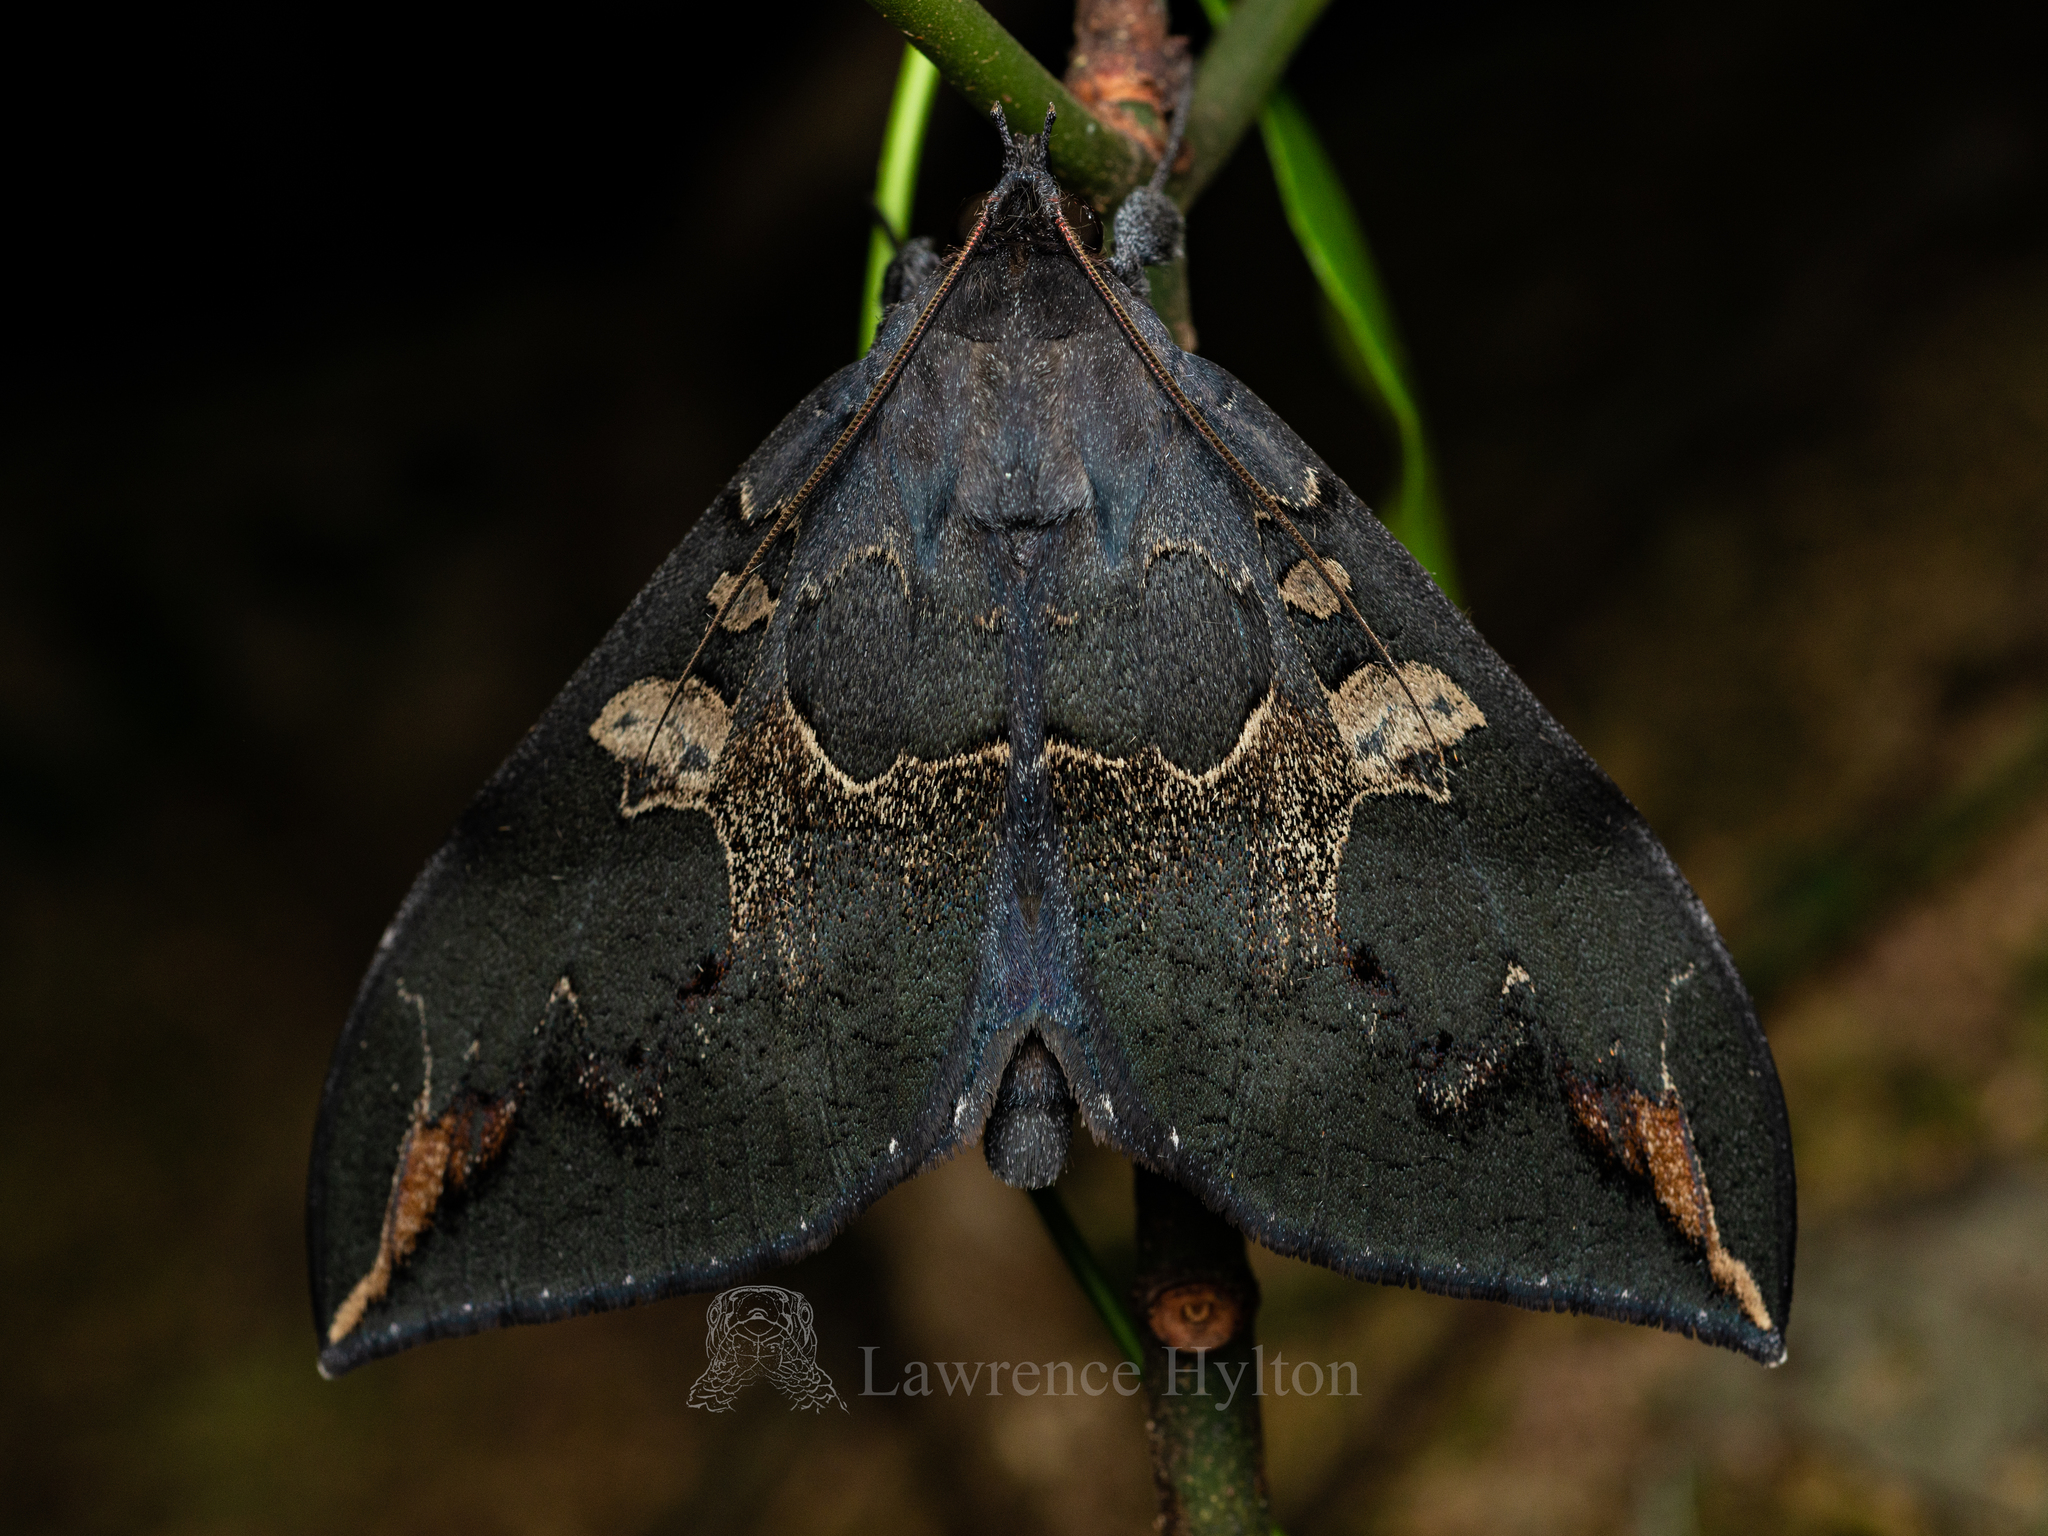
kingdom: Animalia
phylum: Arthropoda
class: Insecta
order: Lepidoptera
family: Erebidae
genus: Ischyja
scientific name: Ischyja ferrifracta
